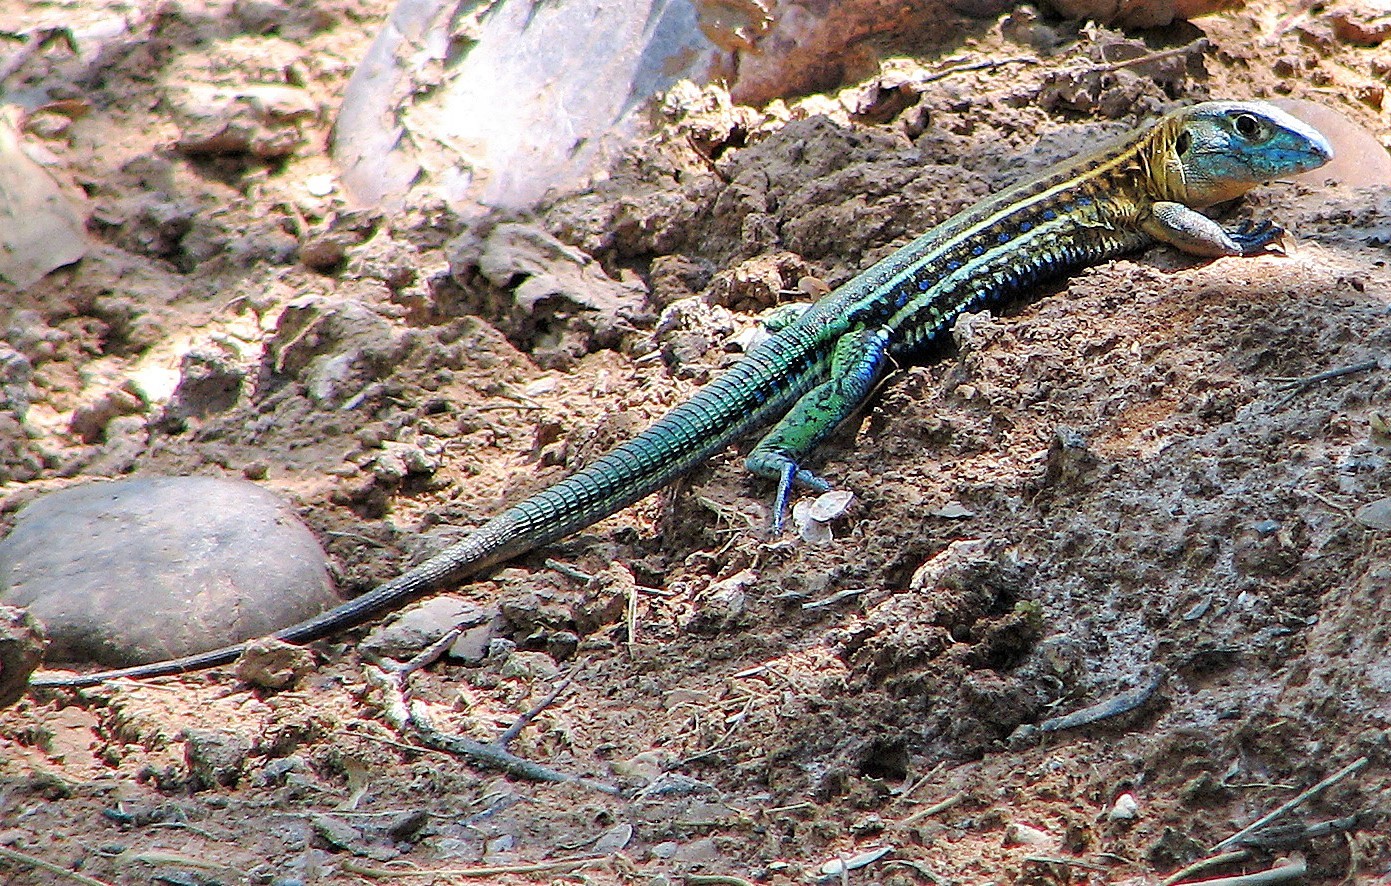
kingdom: Animalia
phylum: Chordata
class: Squamata
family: Teiidae
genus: Teius
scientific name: Teius teyou
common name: Four-toed tegu
